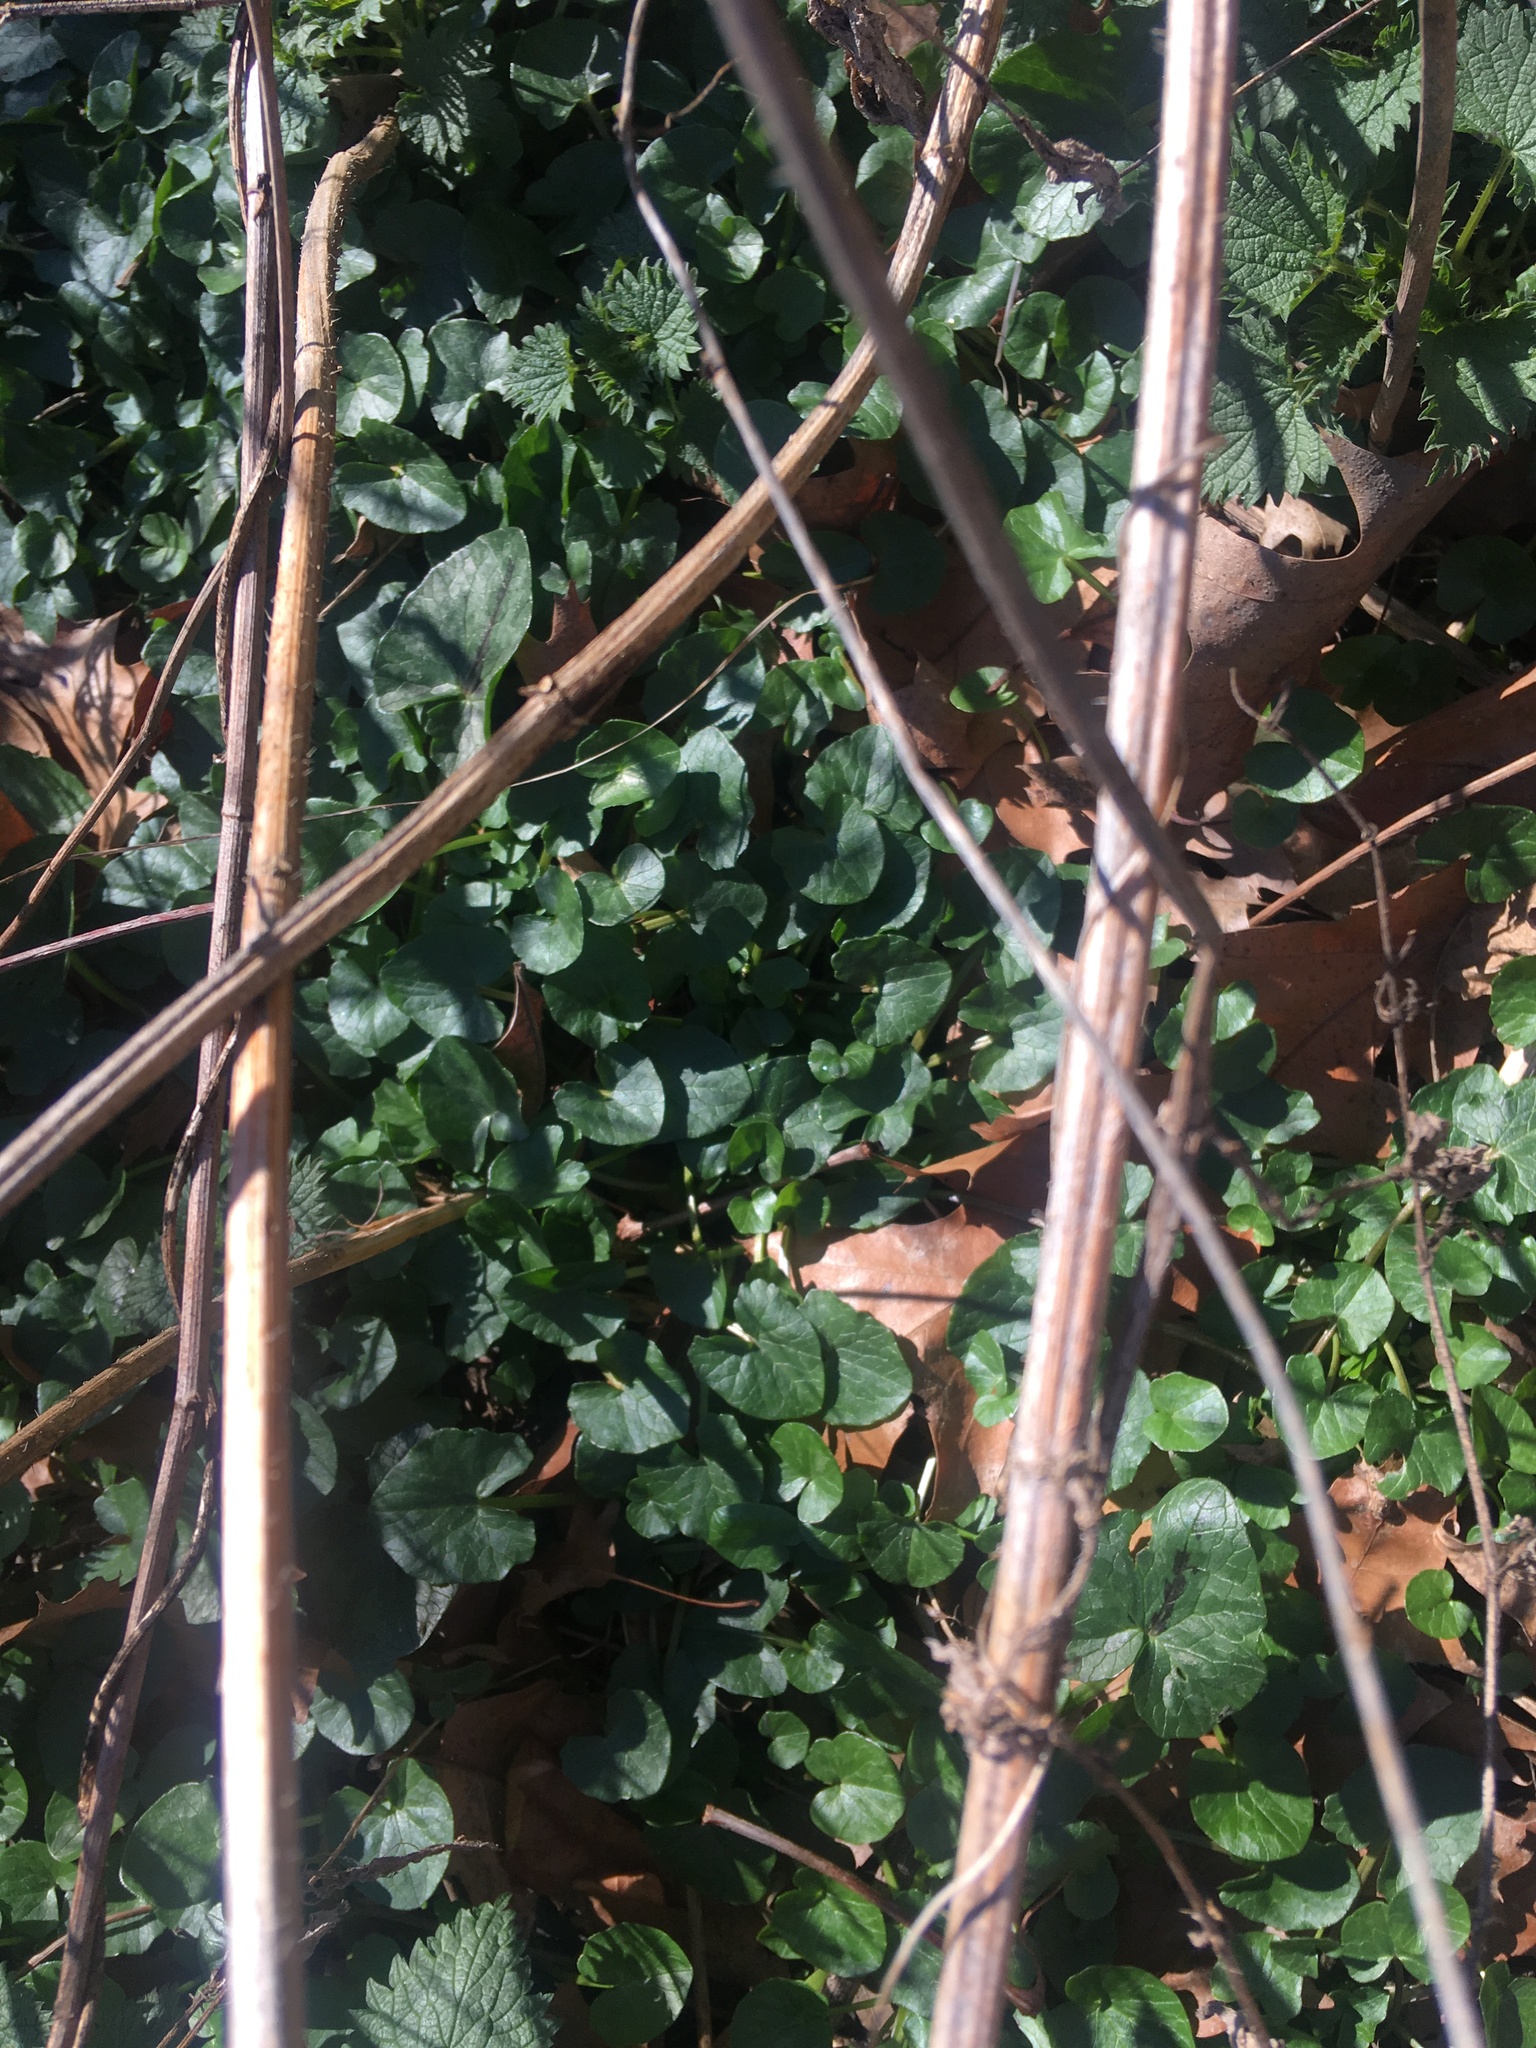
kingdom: Plantae
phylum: Tracheophyta
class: Magnoliopsida
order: Ranunculales
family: Ranunculaceae
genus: Ficaria
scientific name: Ficaria verna
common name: Lesser celandine
